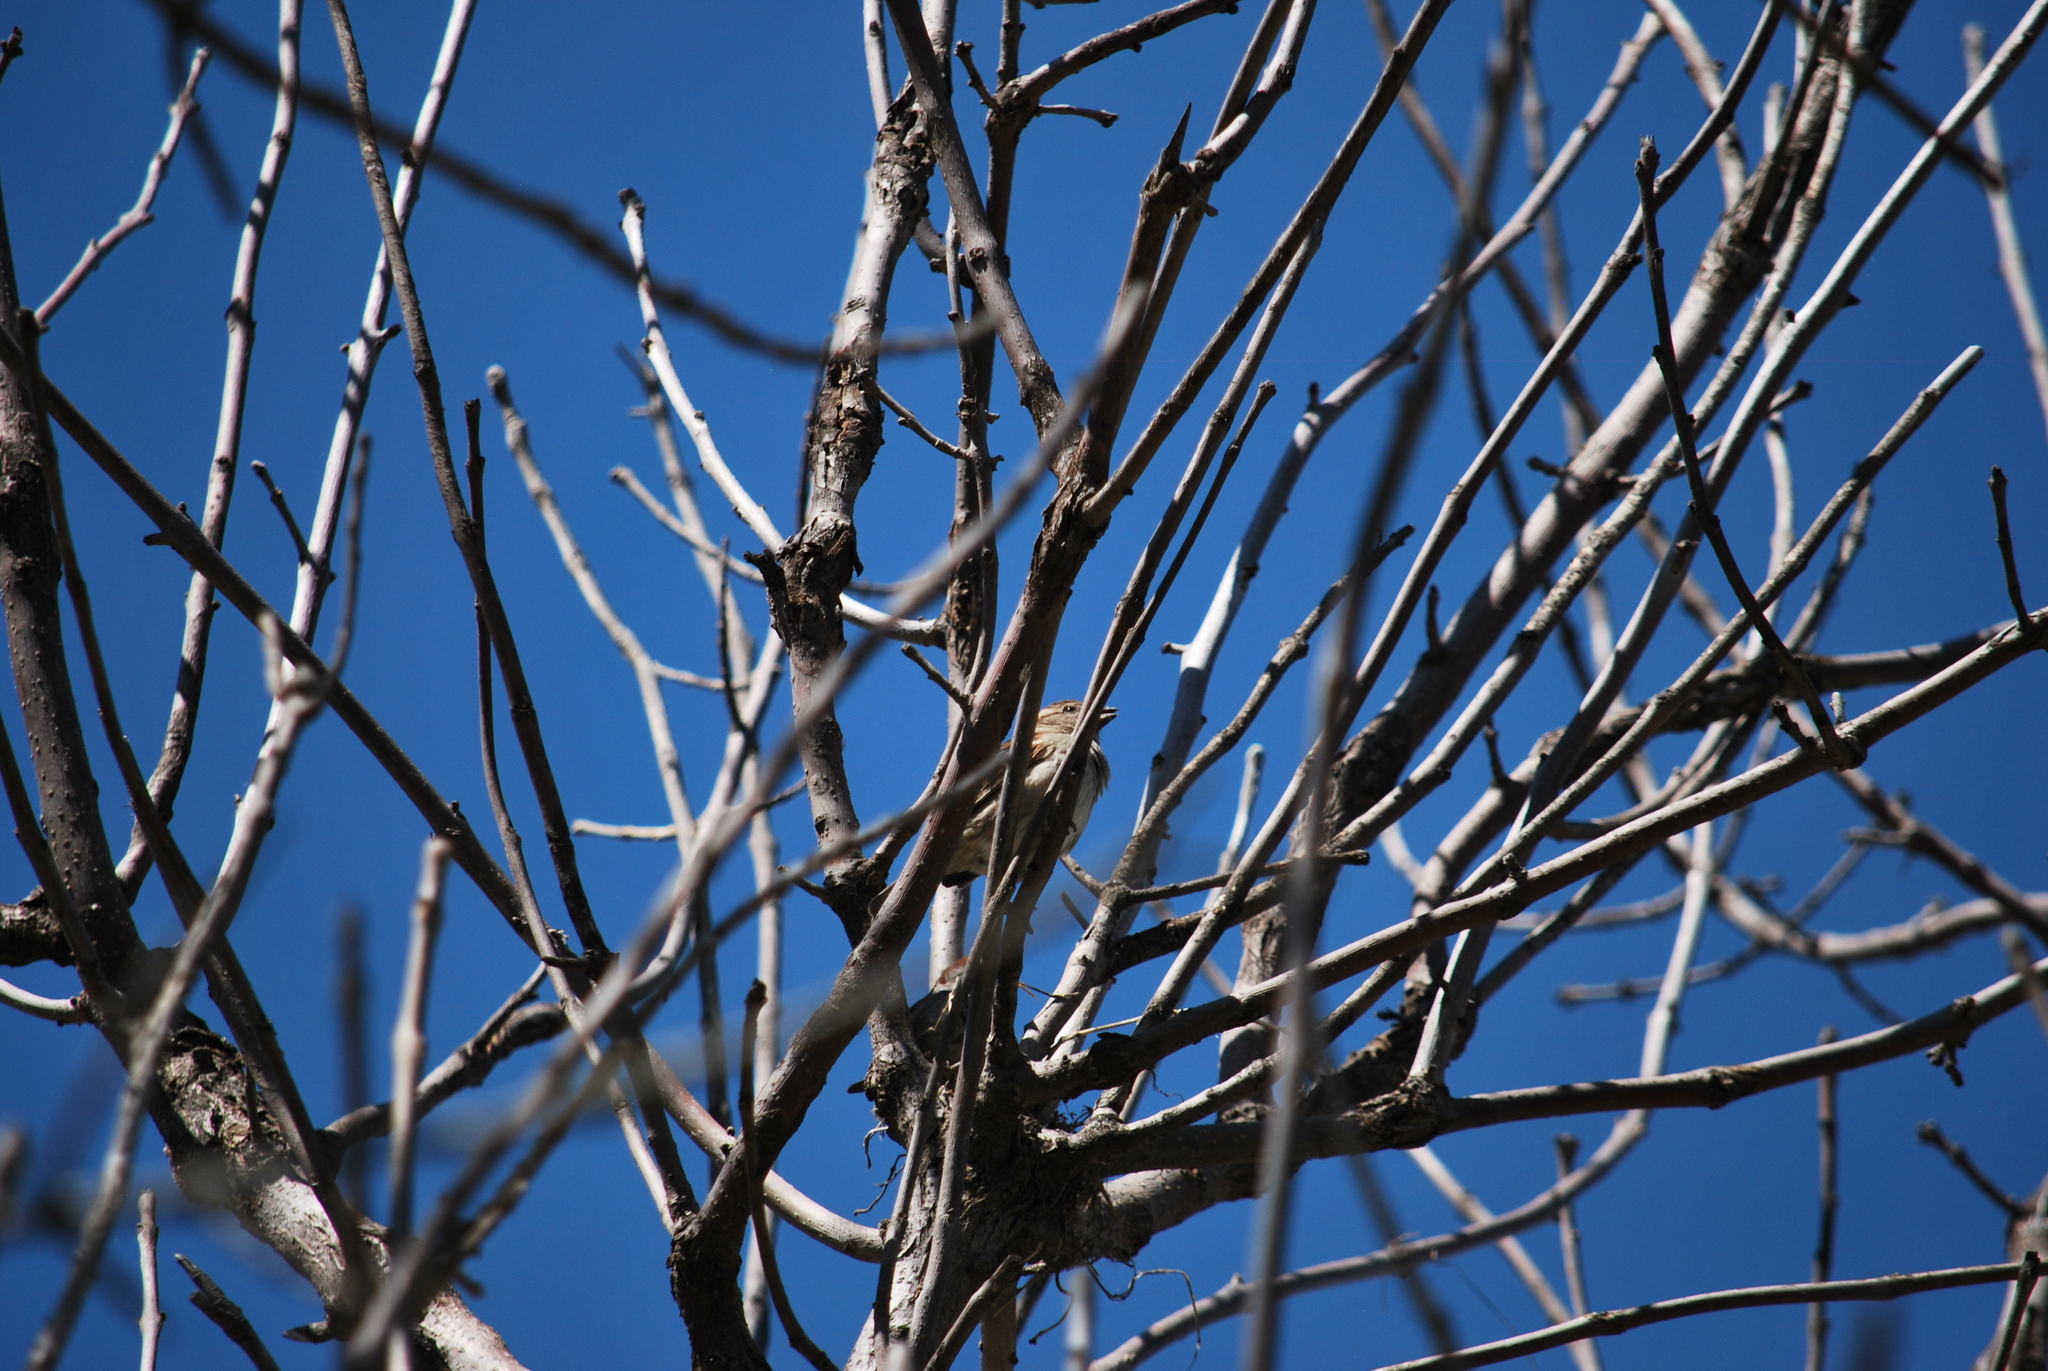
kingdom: Animalia
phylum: Chordata
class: Aves
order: Passeriformes
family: Passeridae
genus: Passer
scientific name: Passer domesticus
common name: House sparrow
